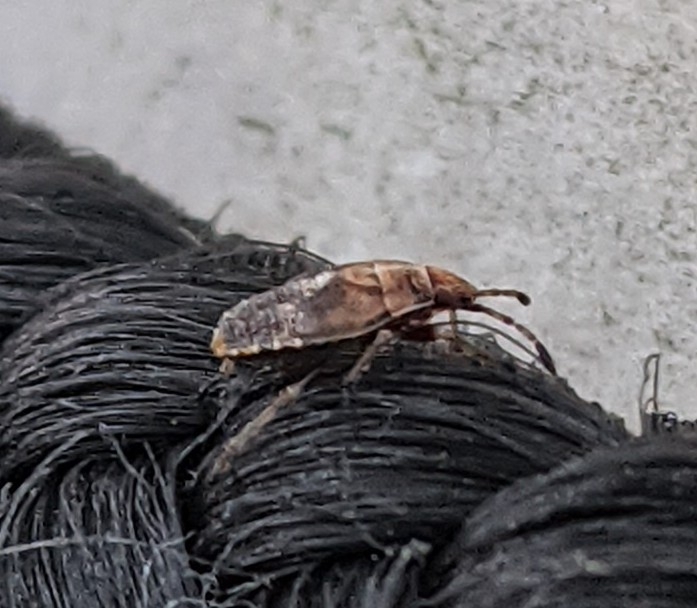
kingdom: Animalia
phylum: Arthropoda
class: Insecta
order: Hemiptera
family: Lygaeidae
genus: Kleidocerys
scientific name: Kleidocerys resedae
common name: Birch catkin bug
